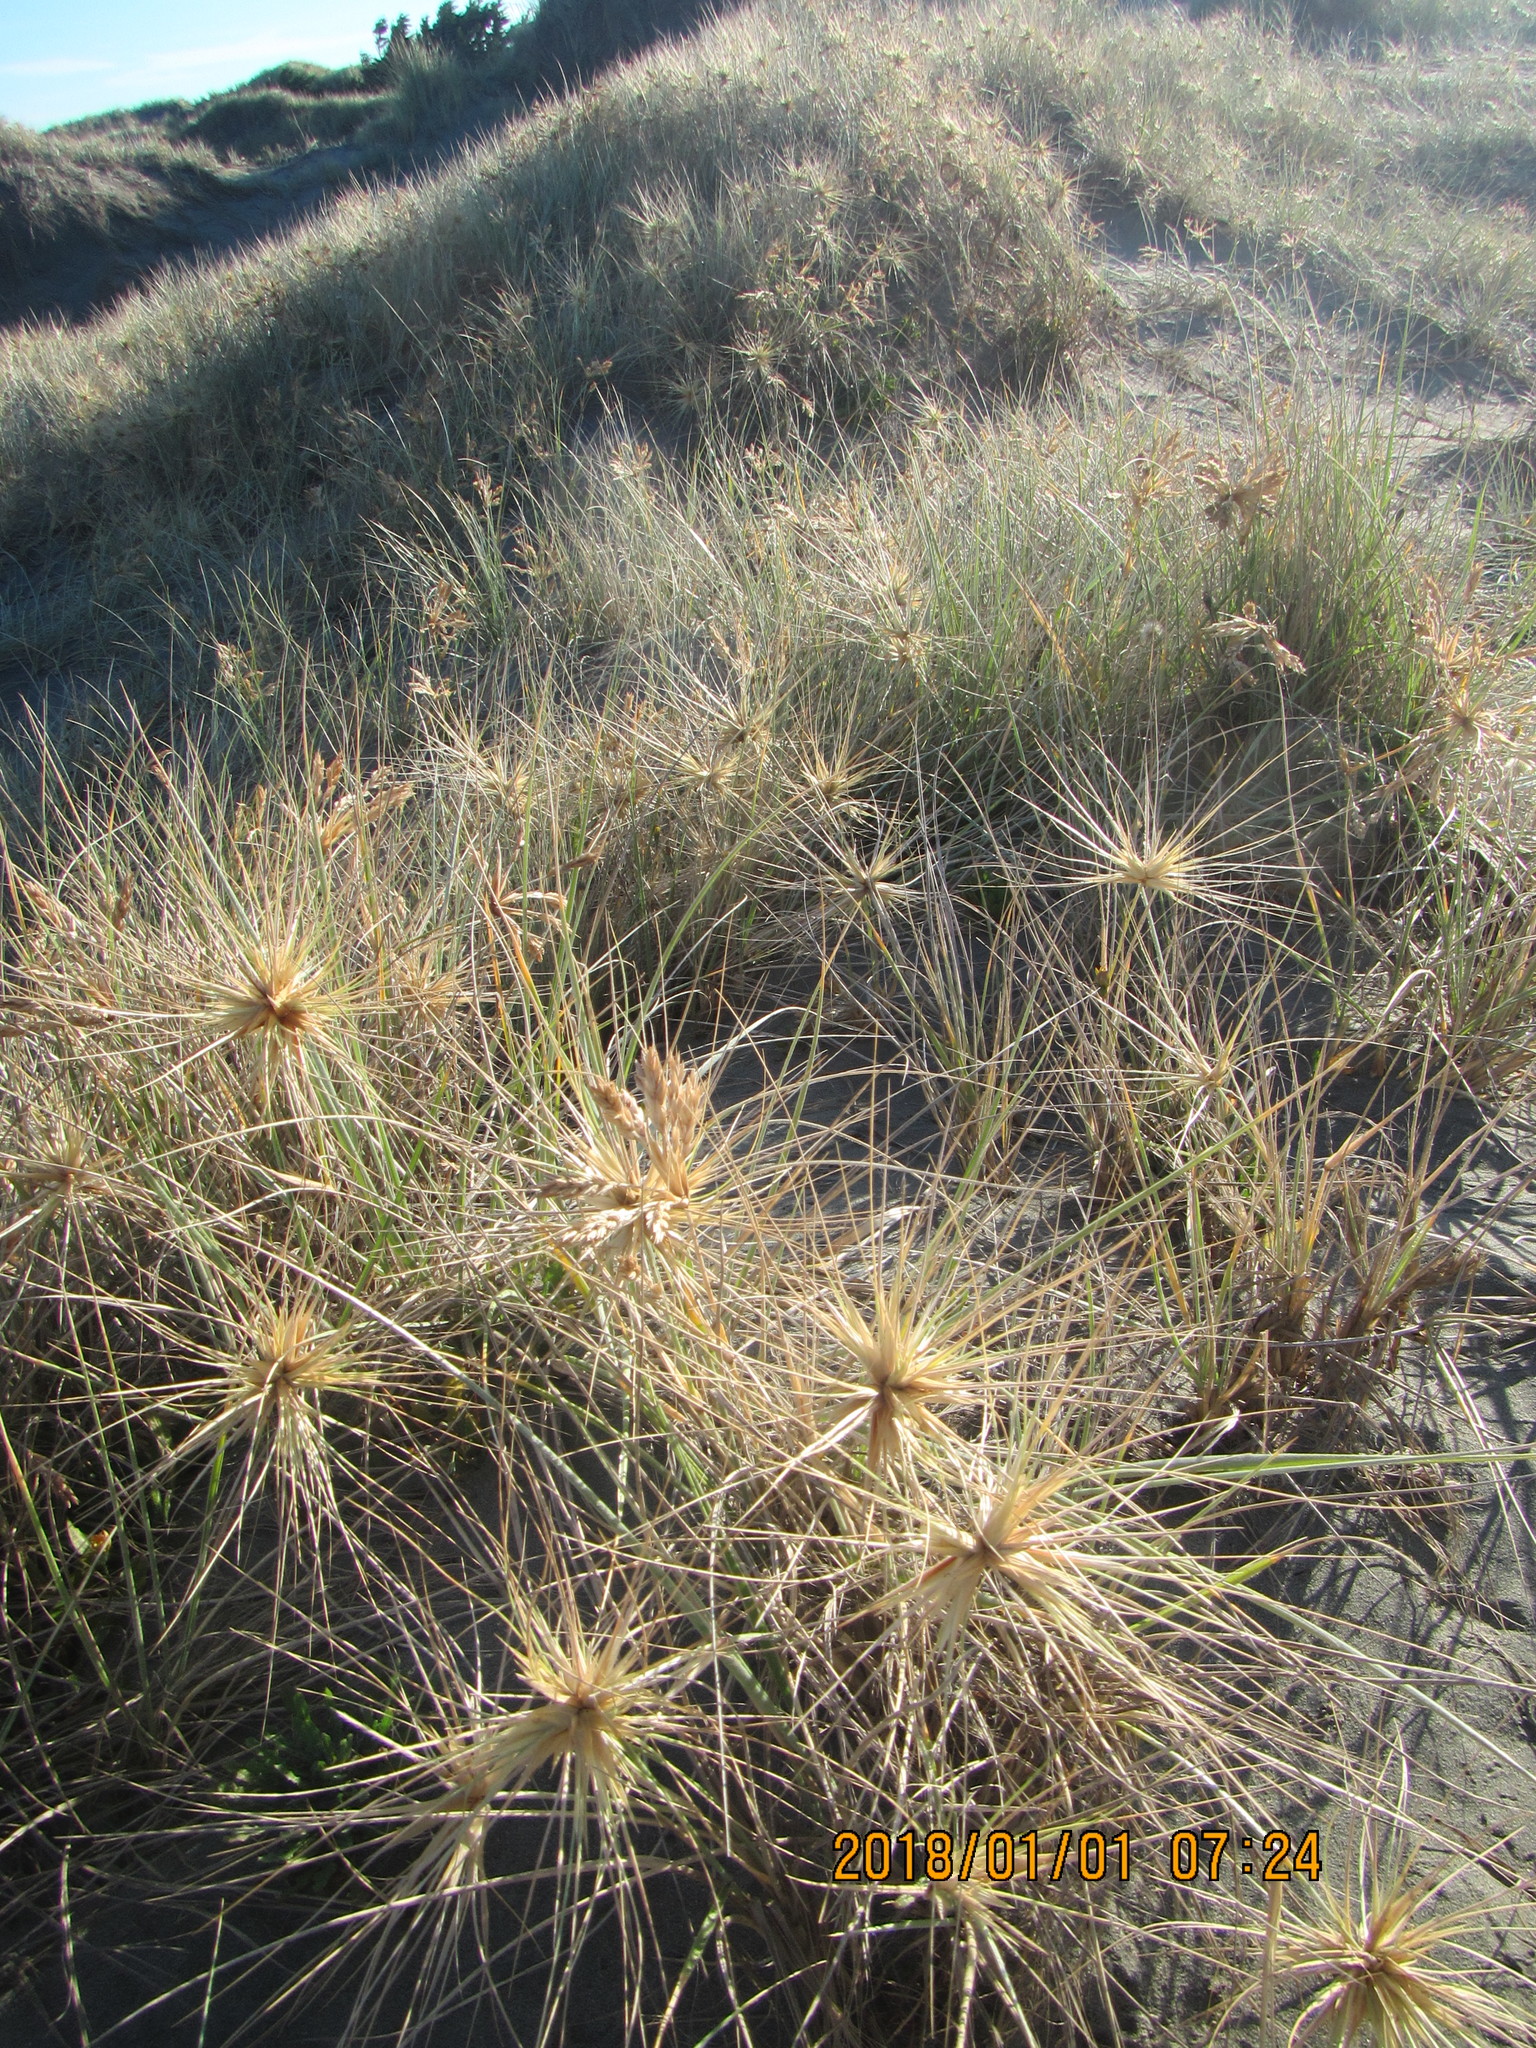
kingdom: Plantae
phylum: Tracheophyta
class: Liliopsida
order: Poales
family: Poaceae
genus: Spinifex
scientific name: Spinifex sericeus
